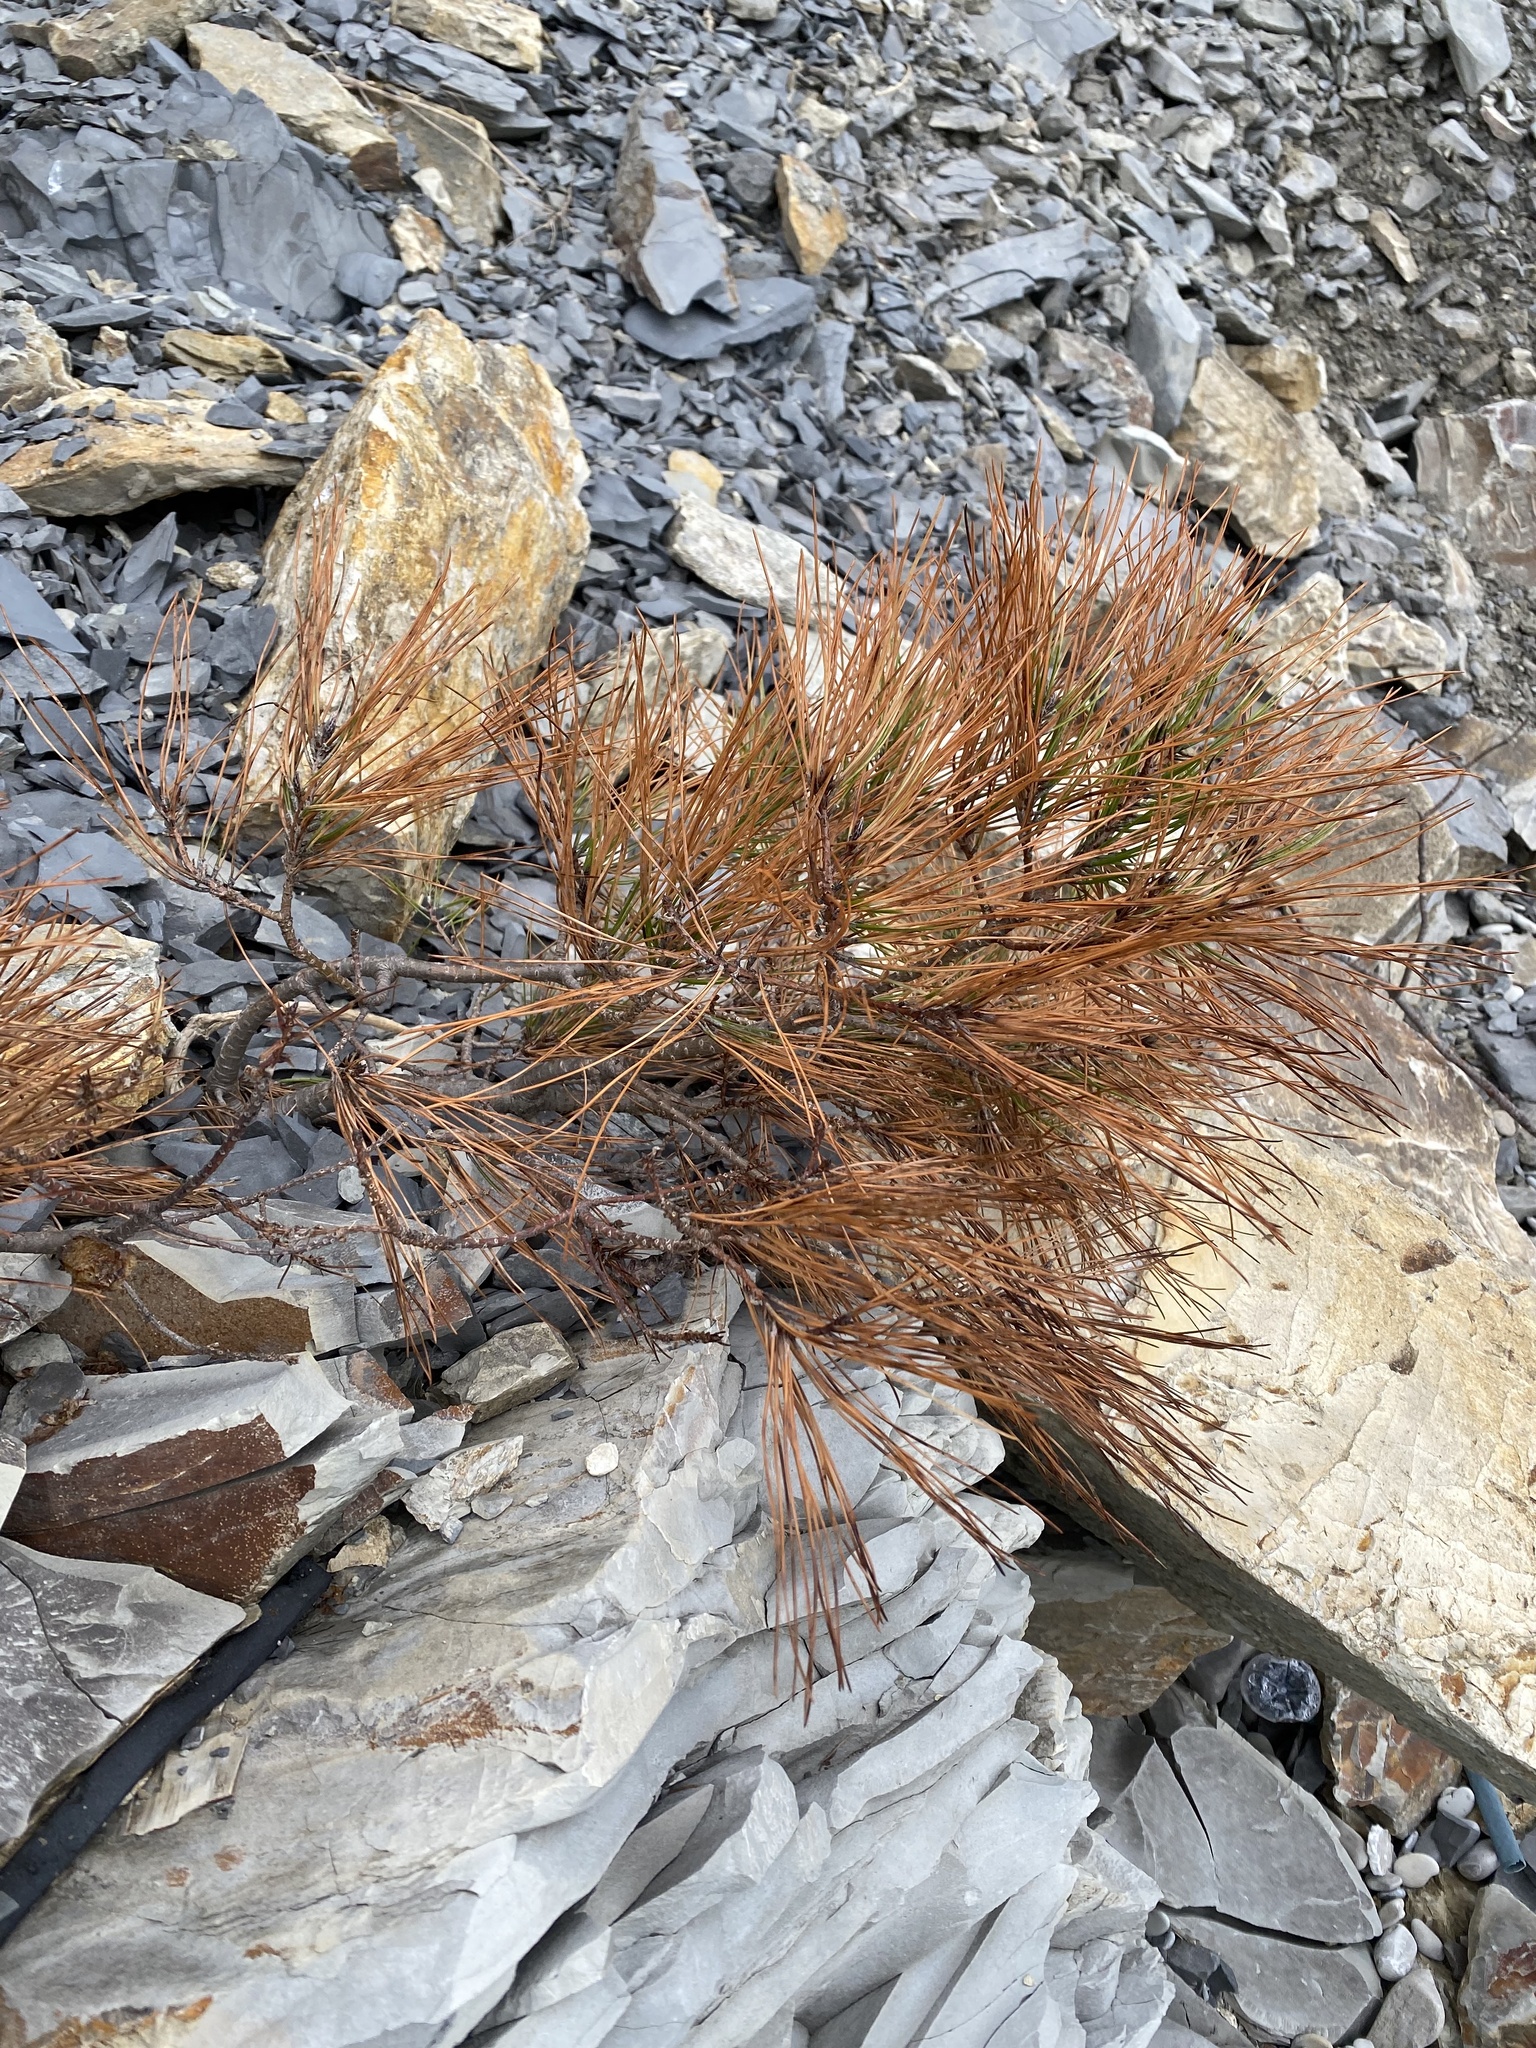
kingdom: Plantae
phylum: Tracheophyta
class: Pinopsida
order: Pinales
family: Pinaceae
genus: Pinus
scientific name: Pinus brutia
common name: Turkish pine
